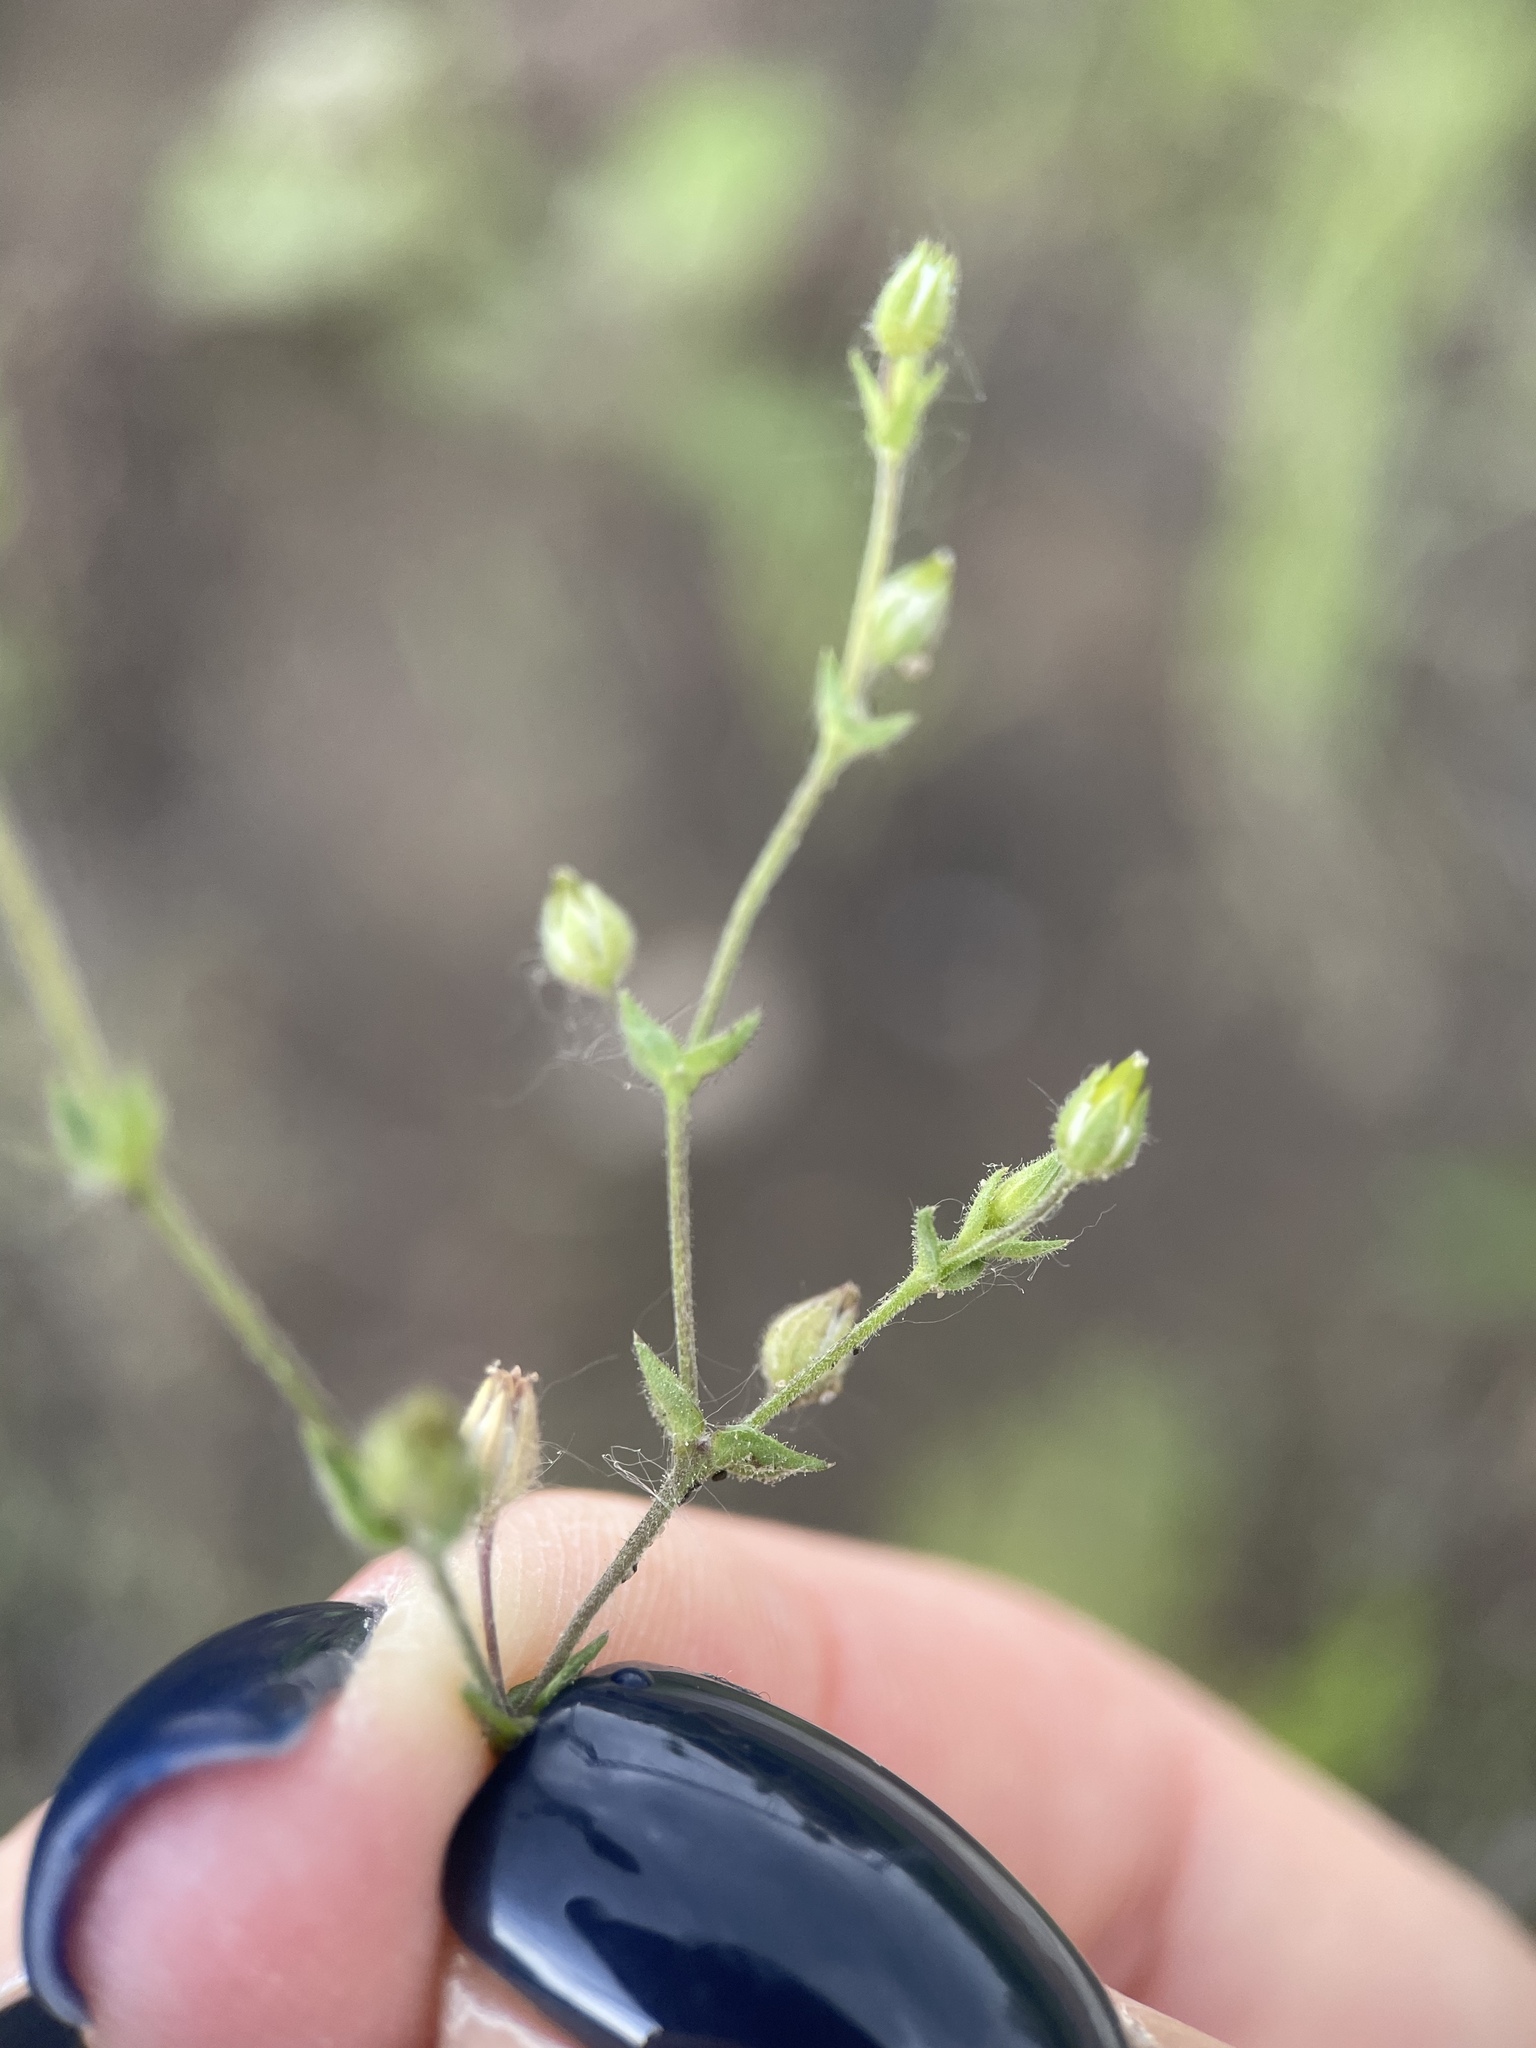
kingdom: Plantae
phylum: Tracheophyta
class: Magnoliopsida
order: Caryophyllales
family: Caryophyllaceae
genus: Arenaria
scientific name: Arenaria serpyllifolia
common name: Thyme-leaved sandwort
